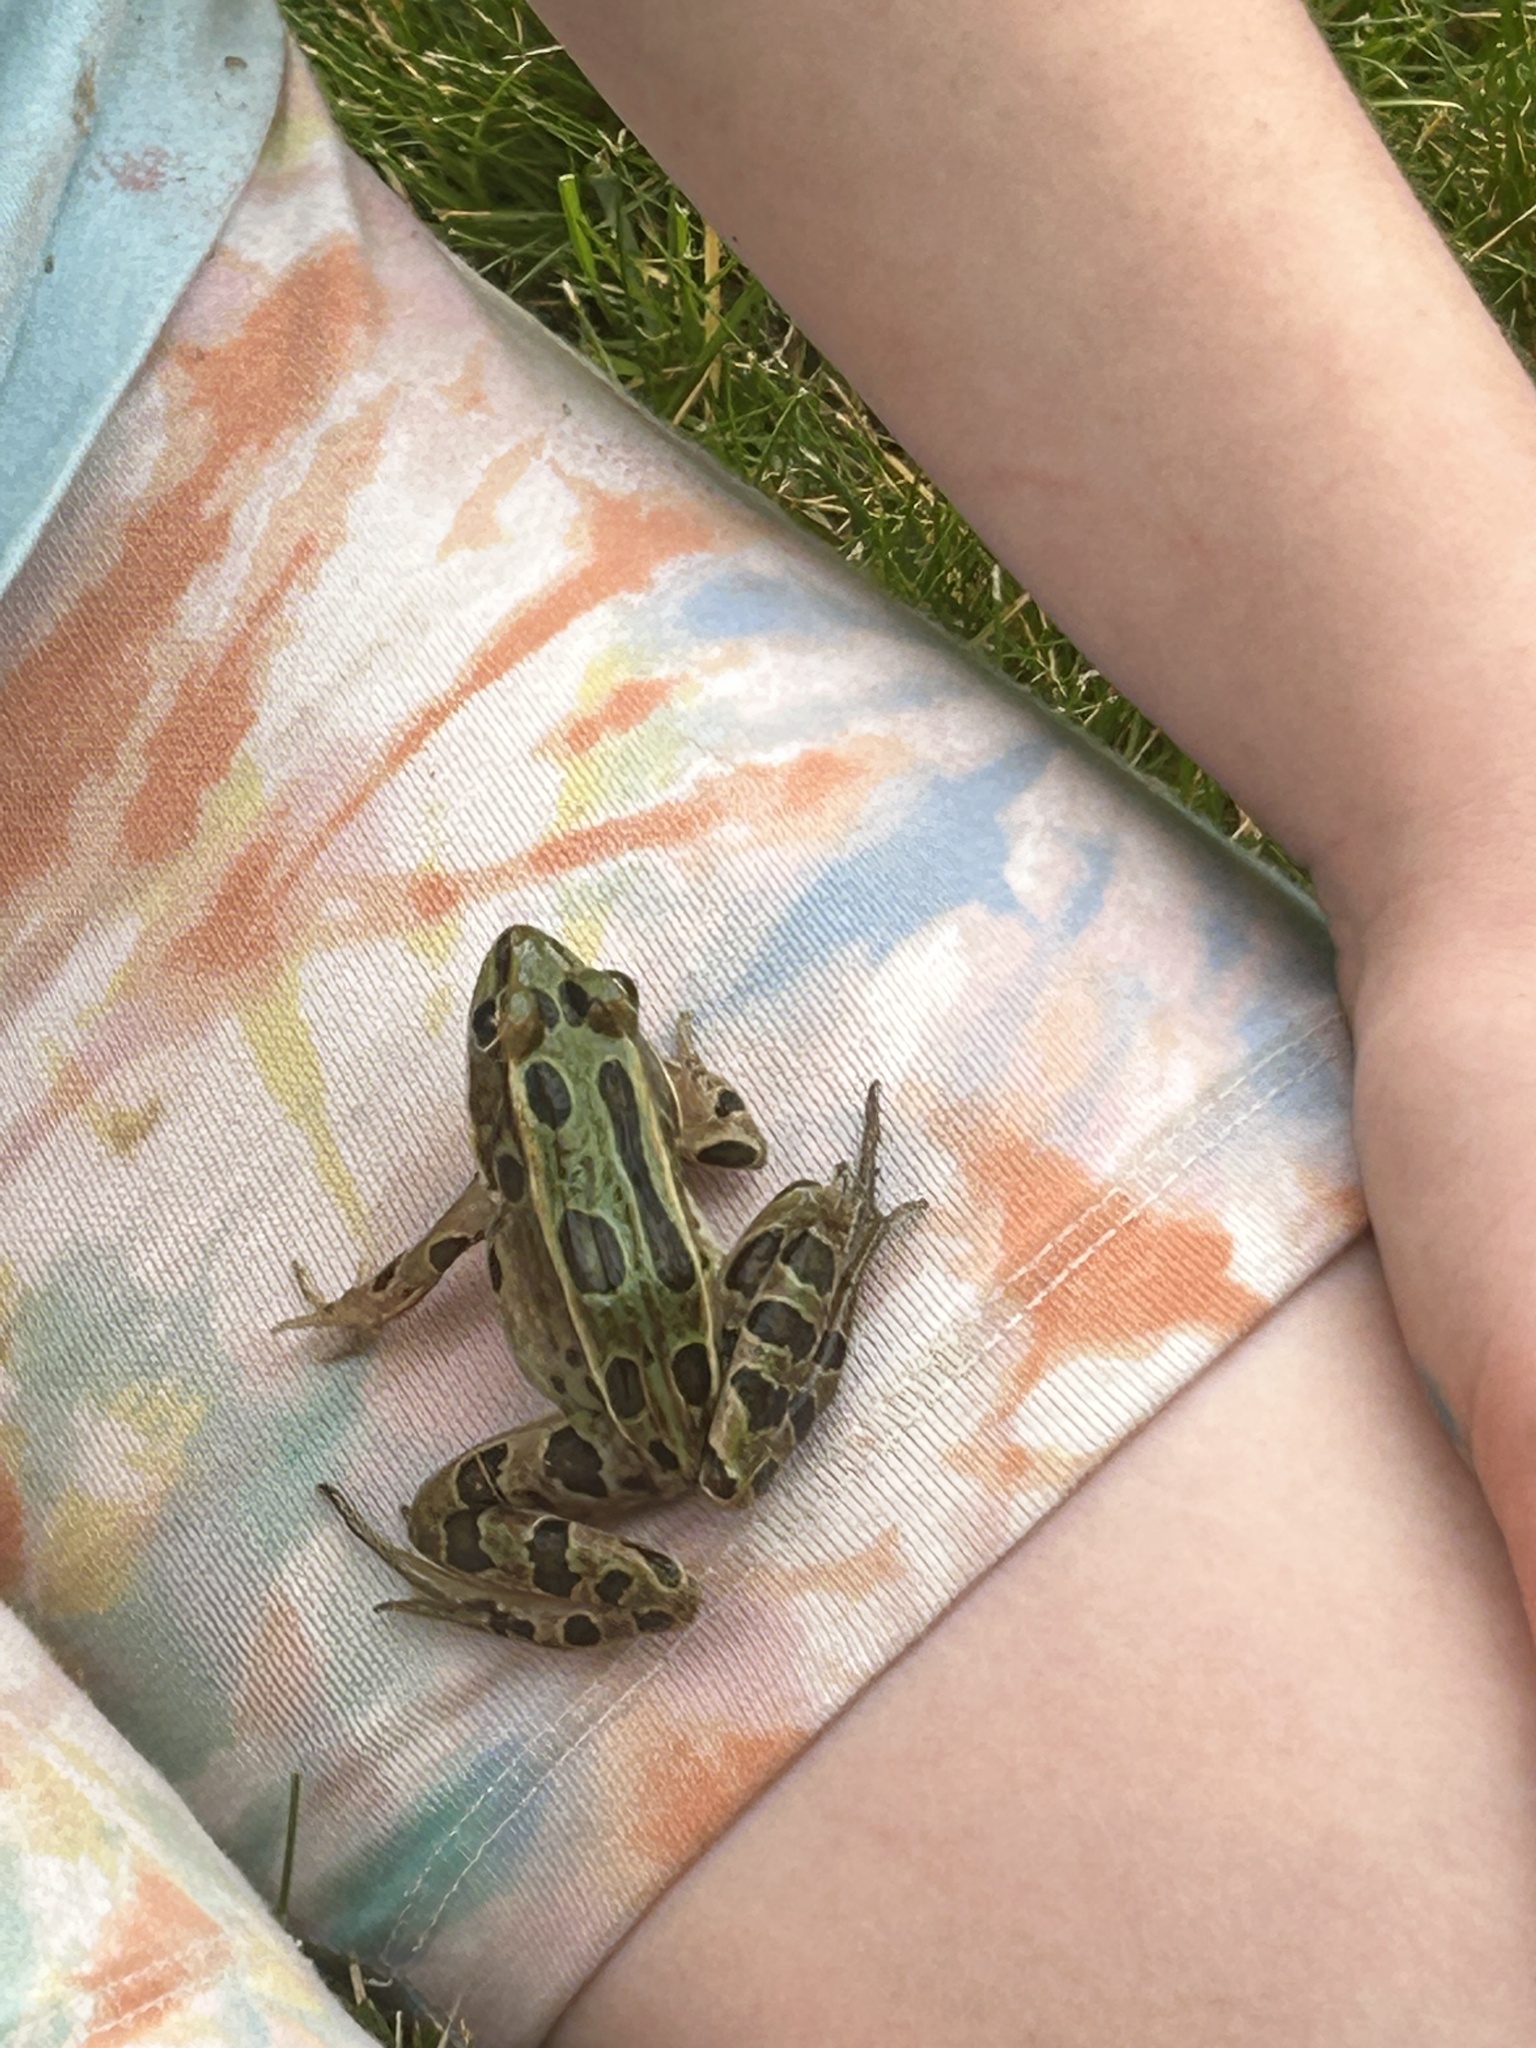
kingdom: Animalia
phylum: Chordata
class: Amphibia
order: Anura
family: Ranidae
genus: Lithobates
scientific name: Lithobates pipiens
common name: Northern leopard frog
